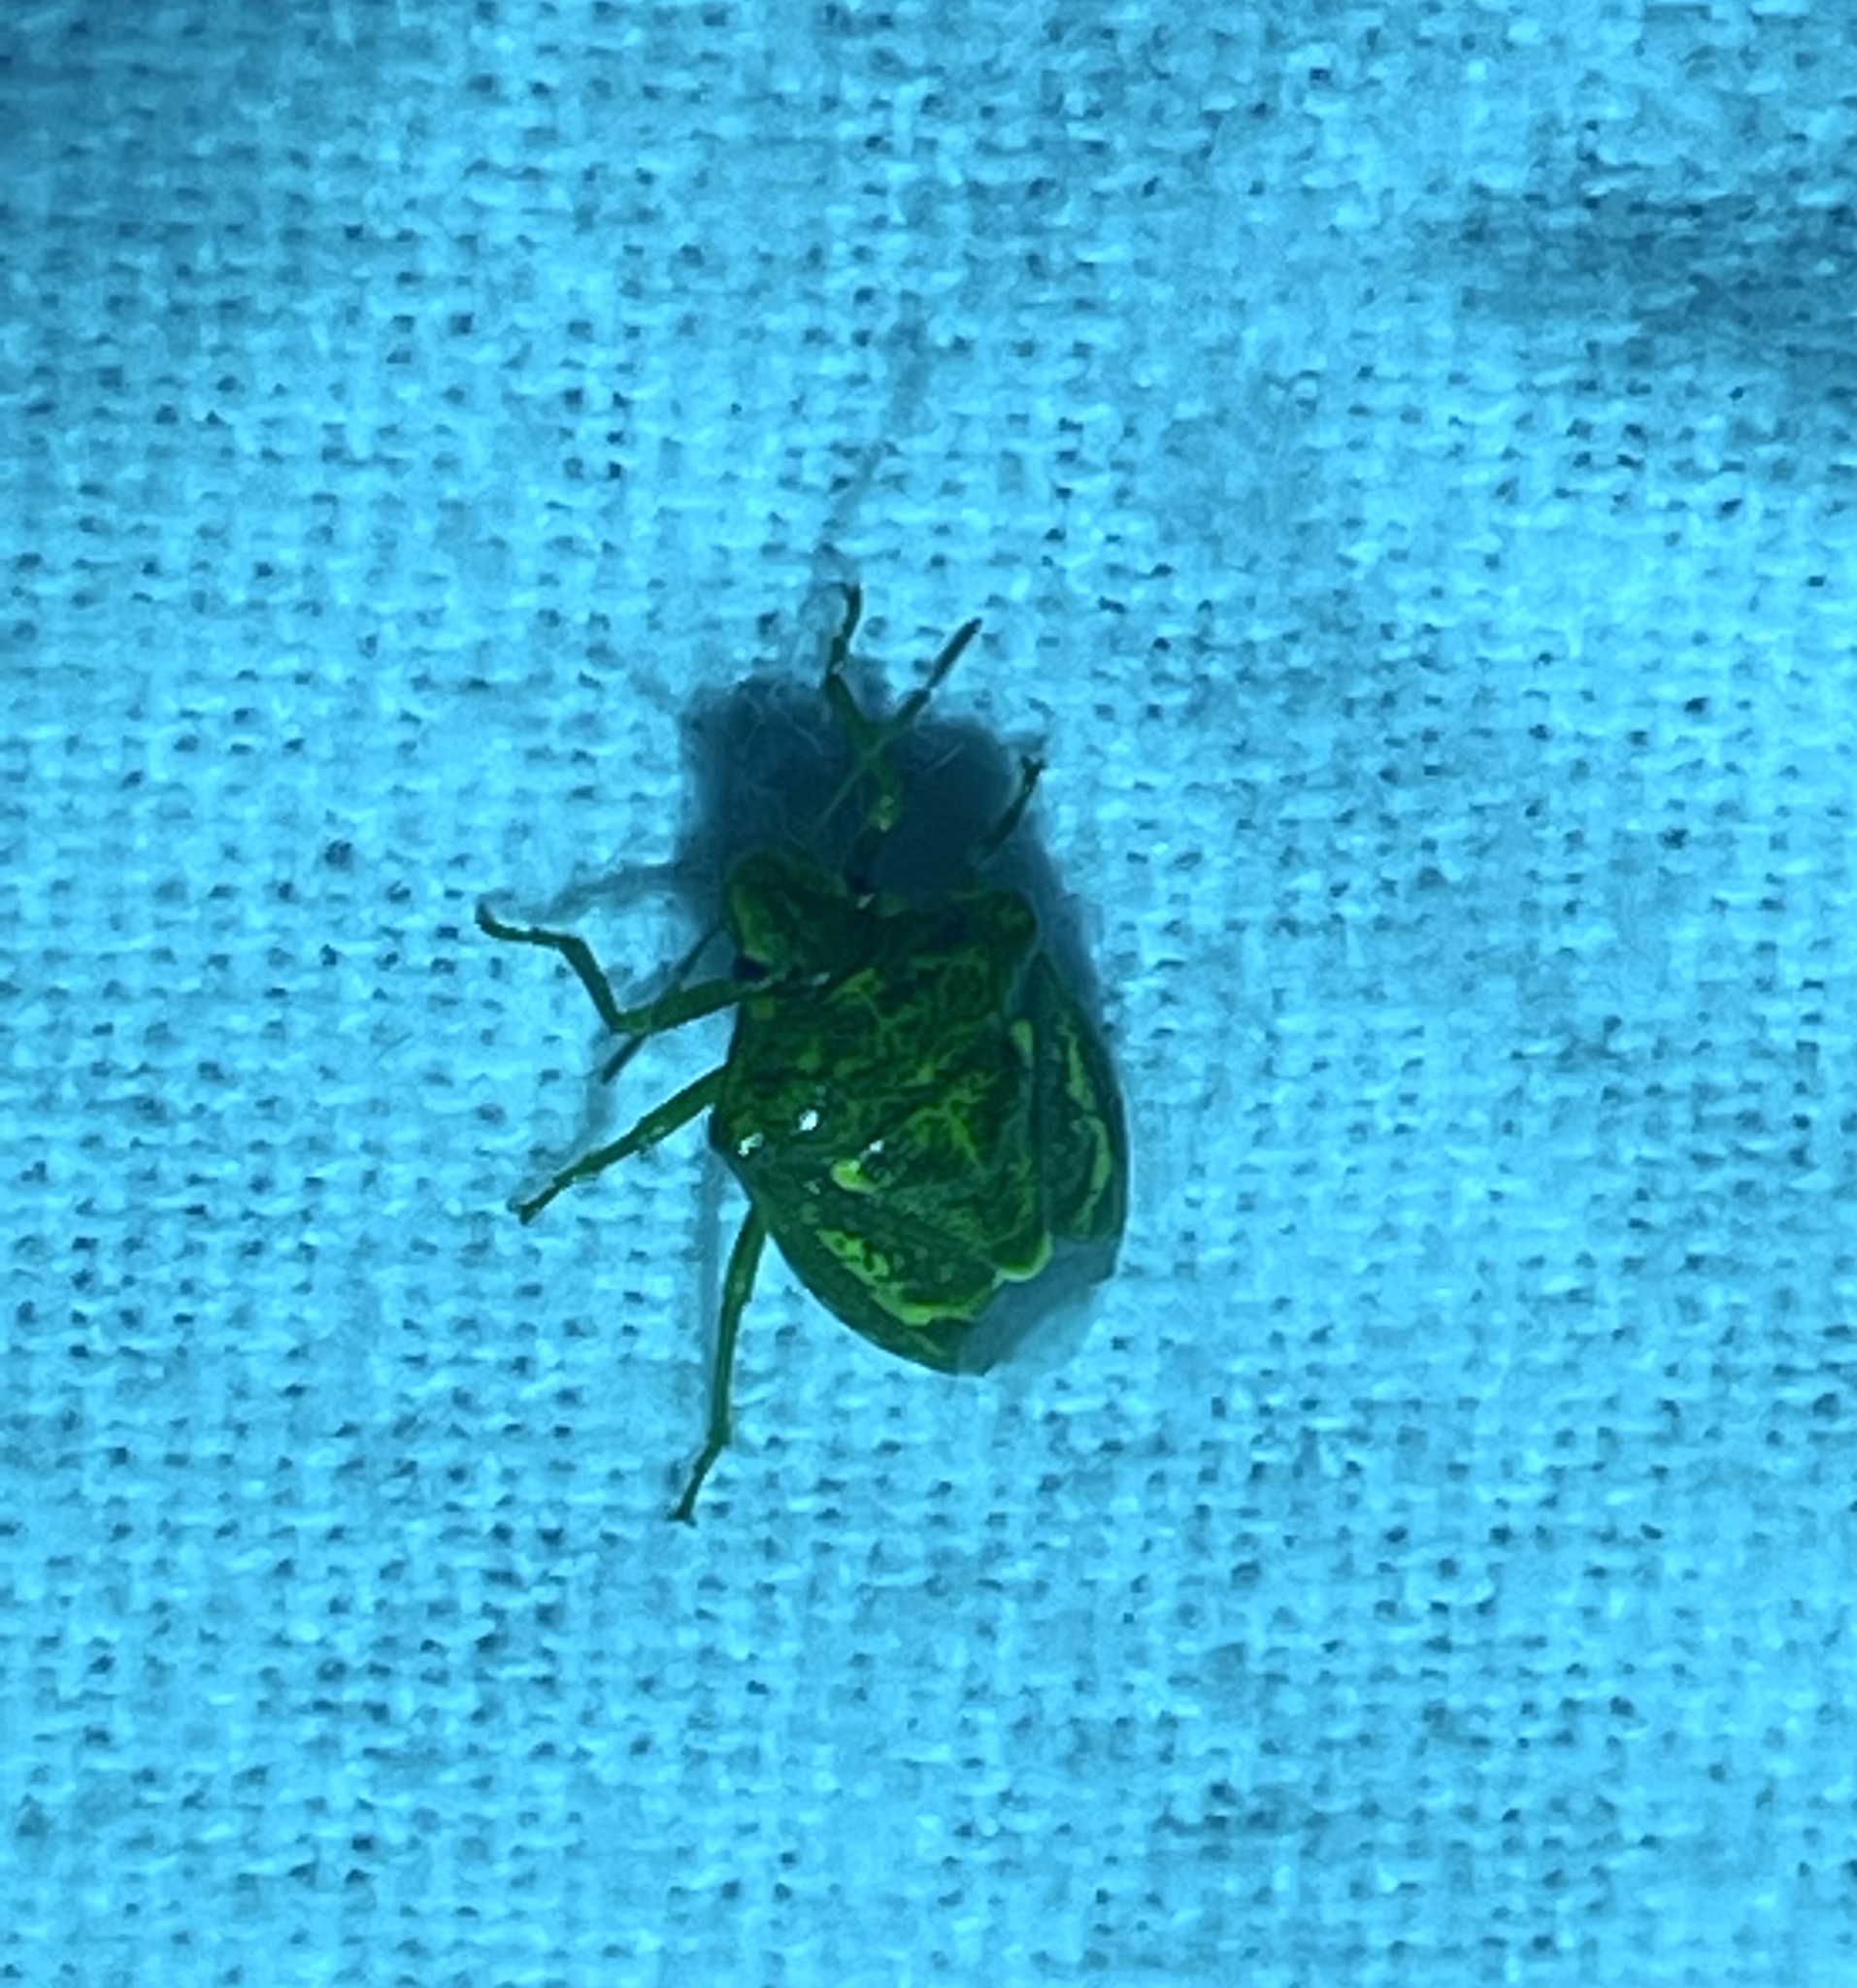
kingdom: Animalia
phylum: Arthropoda
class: Insecta
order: Hemiptera
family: Pentatomidae
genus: Banasa
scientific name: Banasa euchlora
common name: Cedar berry bug
